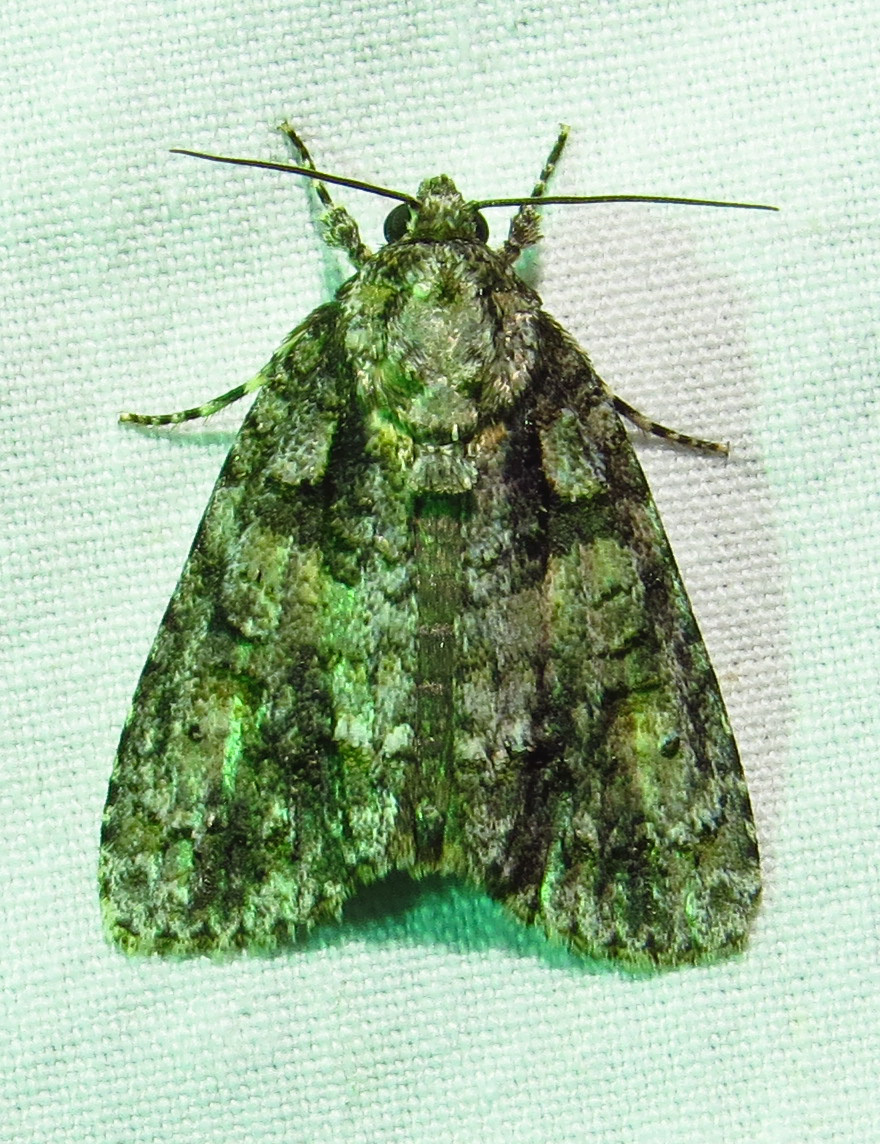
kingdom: Animalia
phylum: Arthropoda
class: Insecta
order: Lepidoptera
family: Noctuidae
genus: Acronicta
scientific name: Acronicta increta
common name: Eclipsed oak dagger
